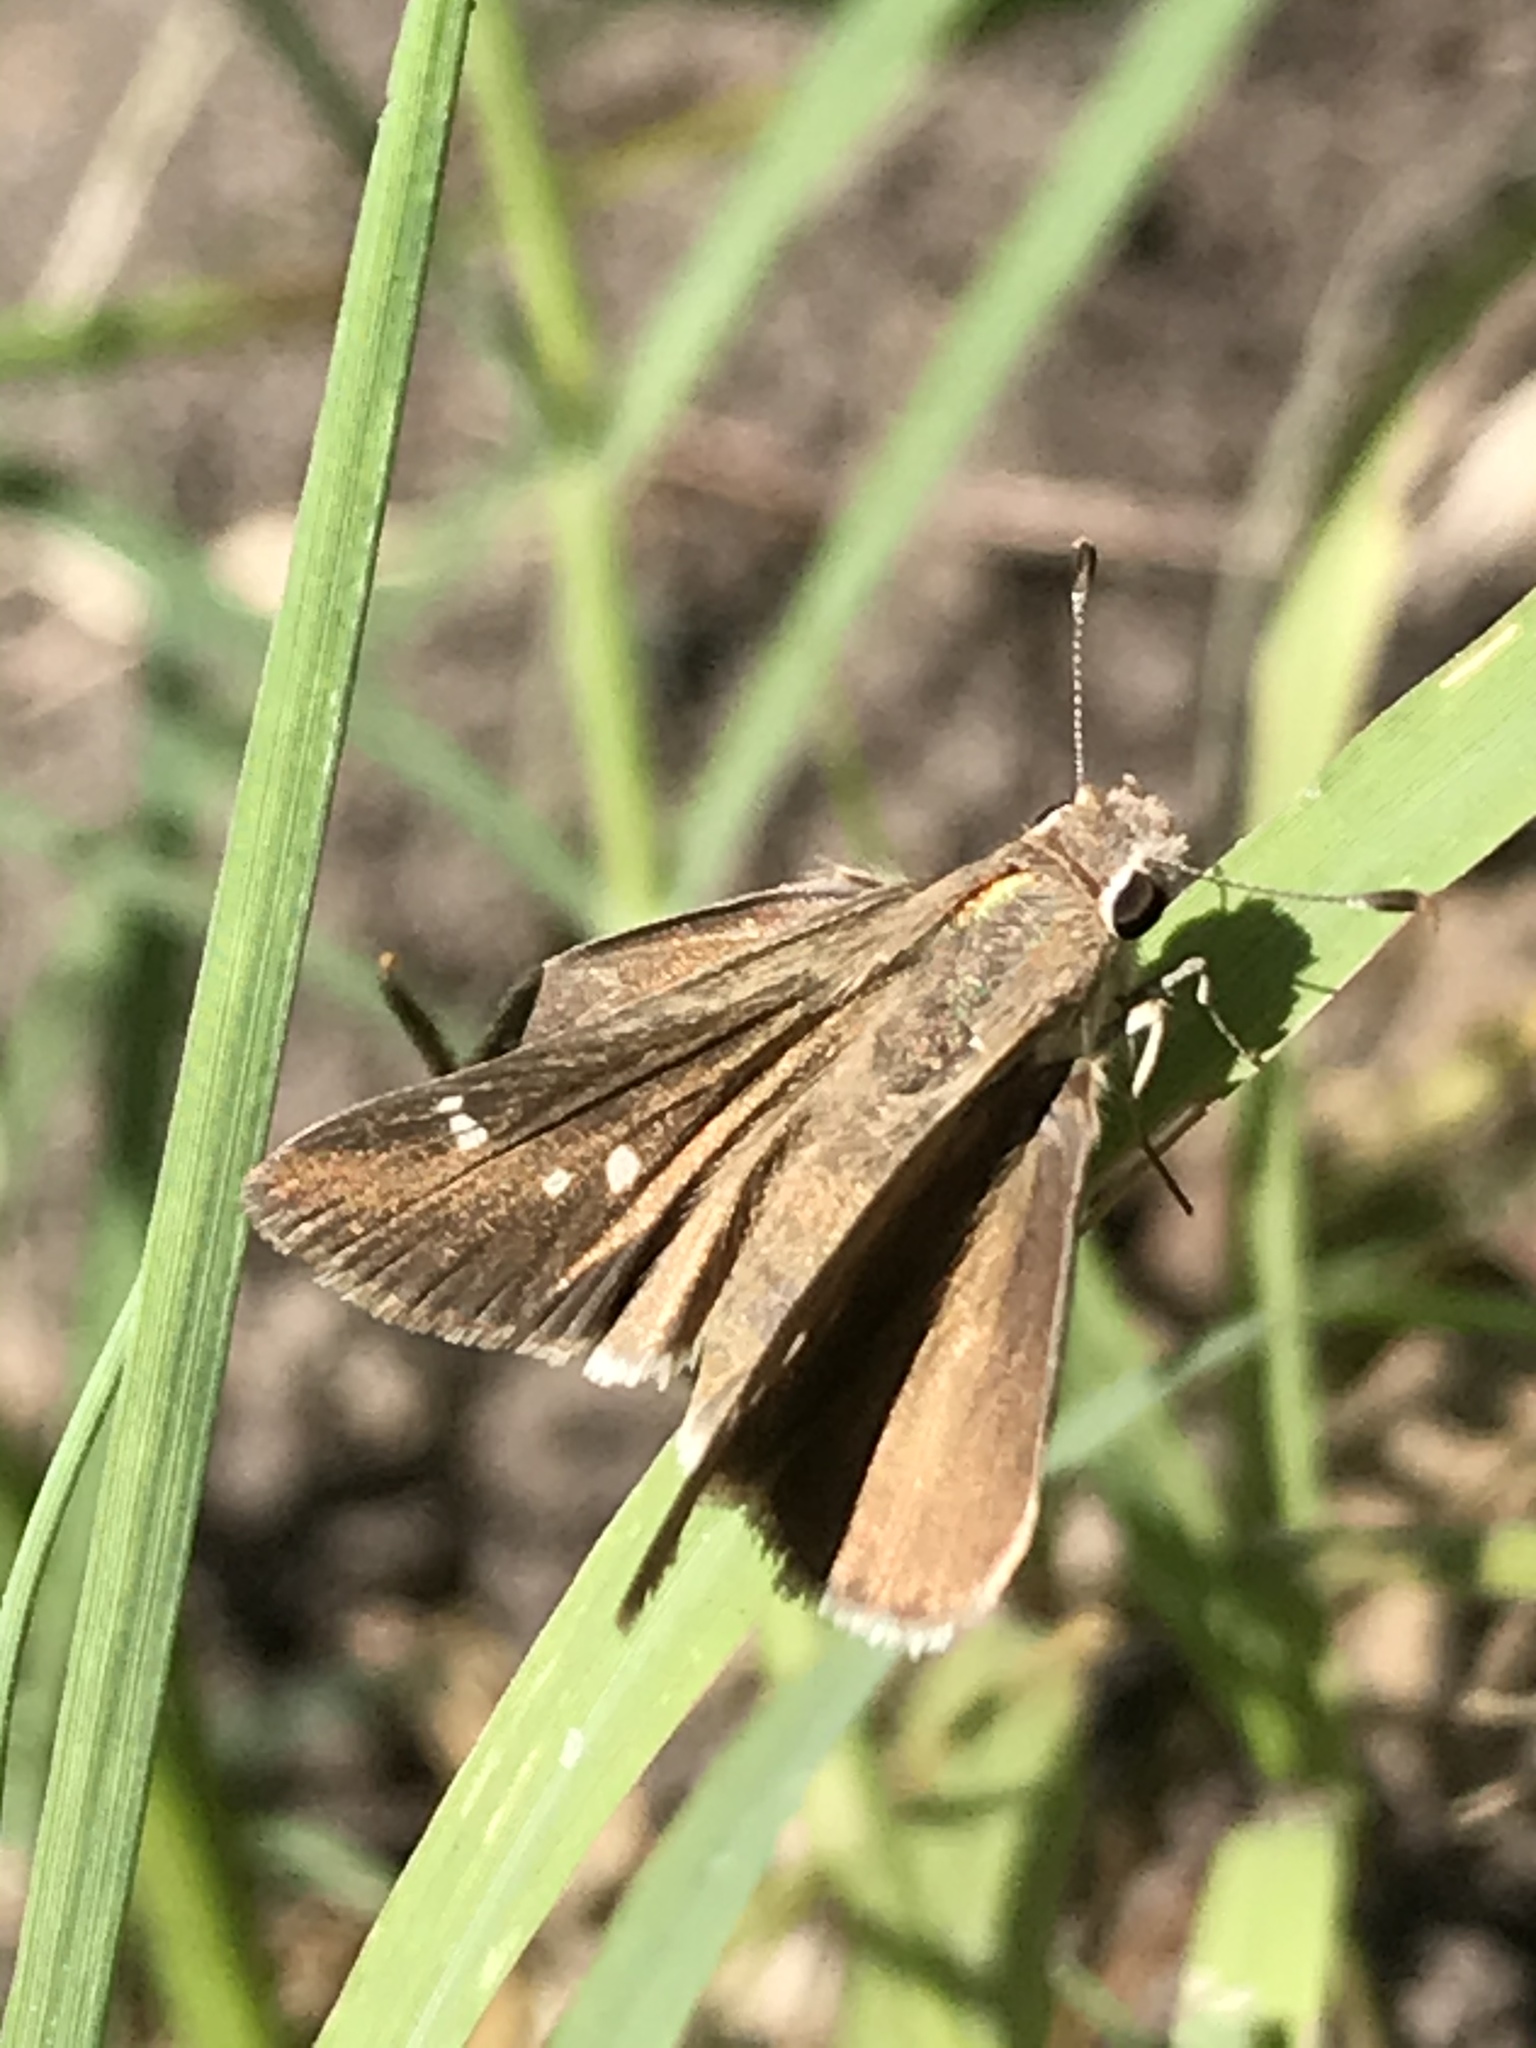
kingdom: Animalia
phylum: Arthropoda
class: Insecta
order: Lepidoptera
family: Hesperiidae
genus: Lerodea
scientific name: Lerodea eufala
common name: Eufala skipper
